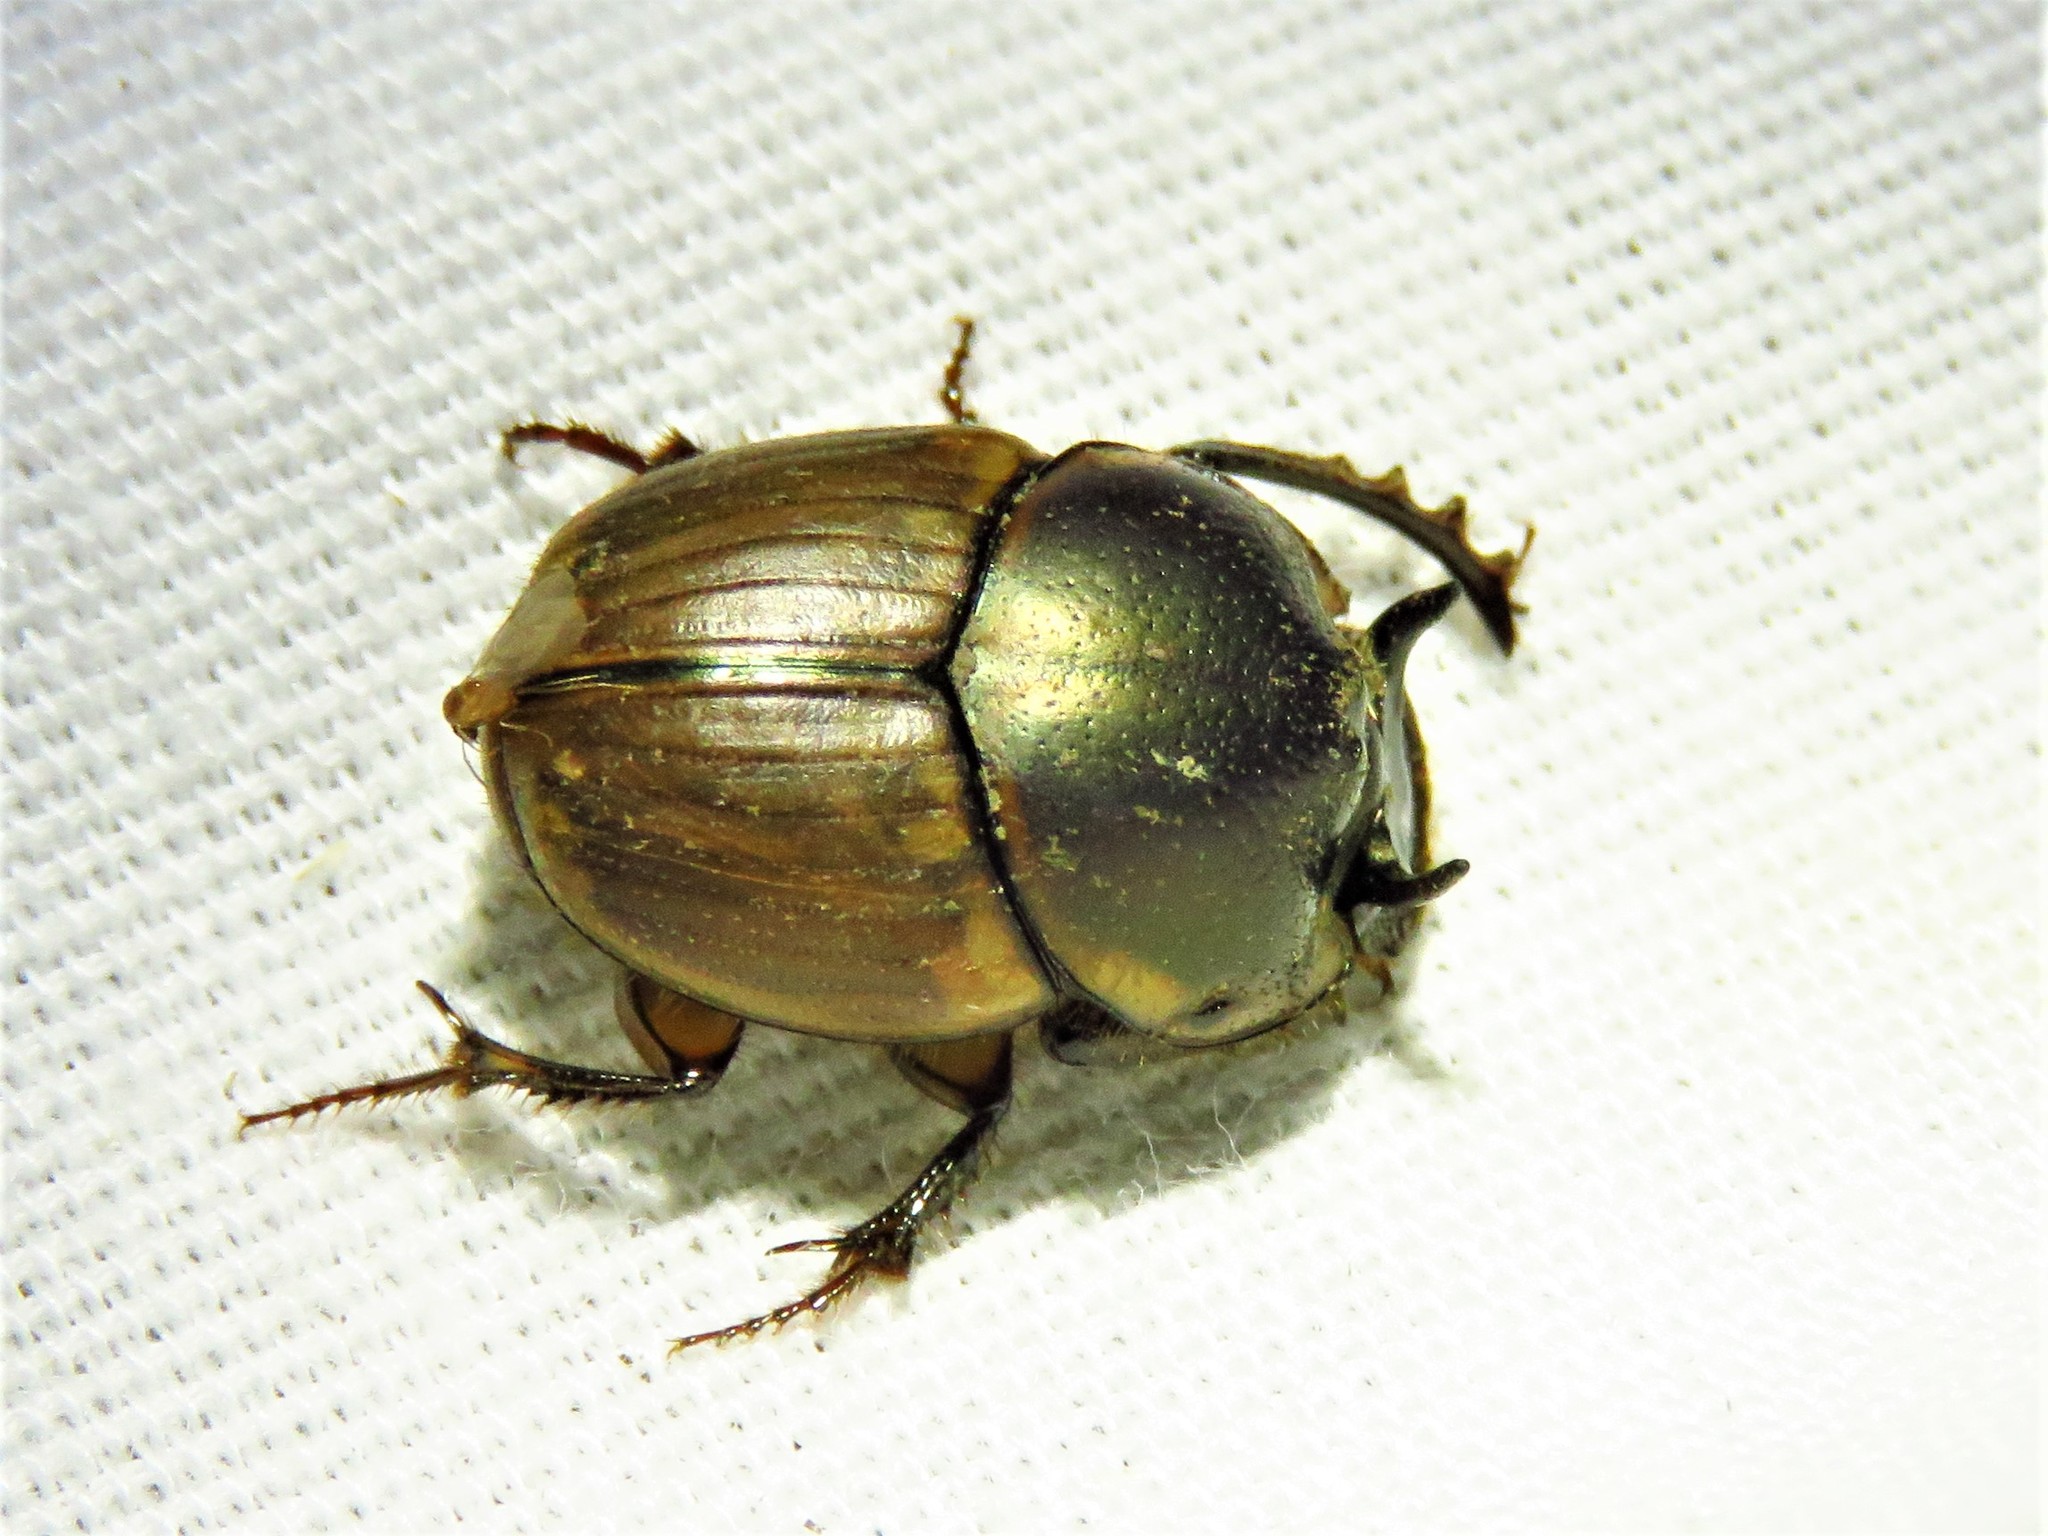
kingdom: Animalia
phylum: Arthropoda
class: Insecta
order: Coleoptera
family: Scarabaeidae
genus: Digitonthophagus
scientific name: Digitonthophagus gazella
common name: Brown dung beetle
